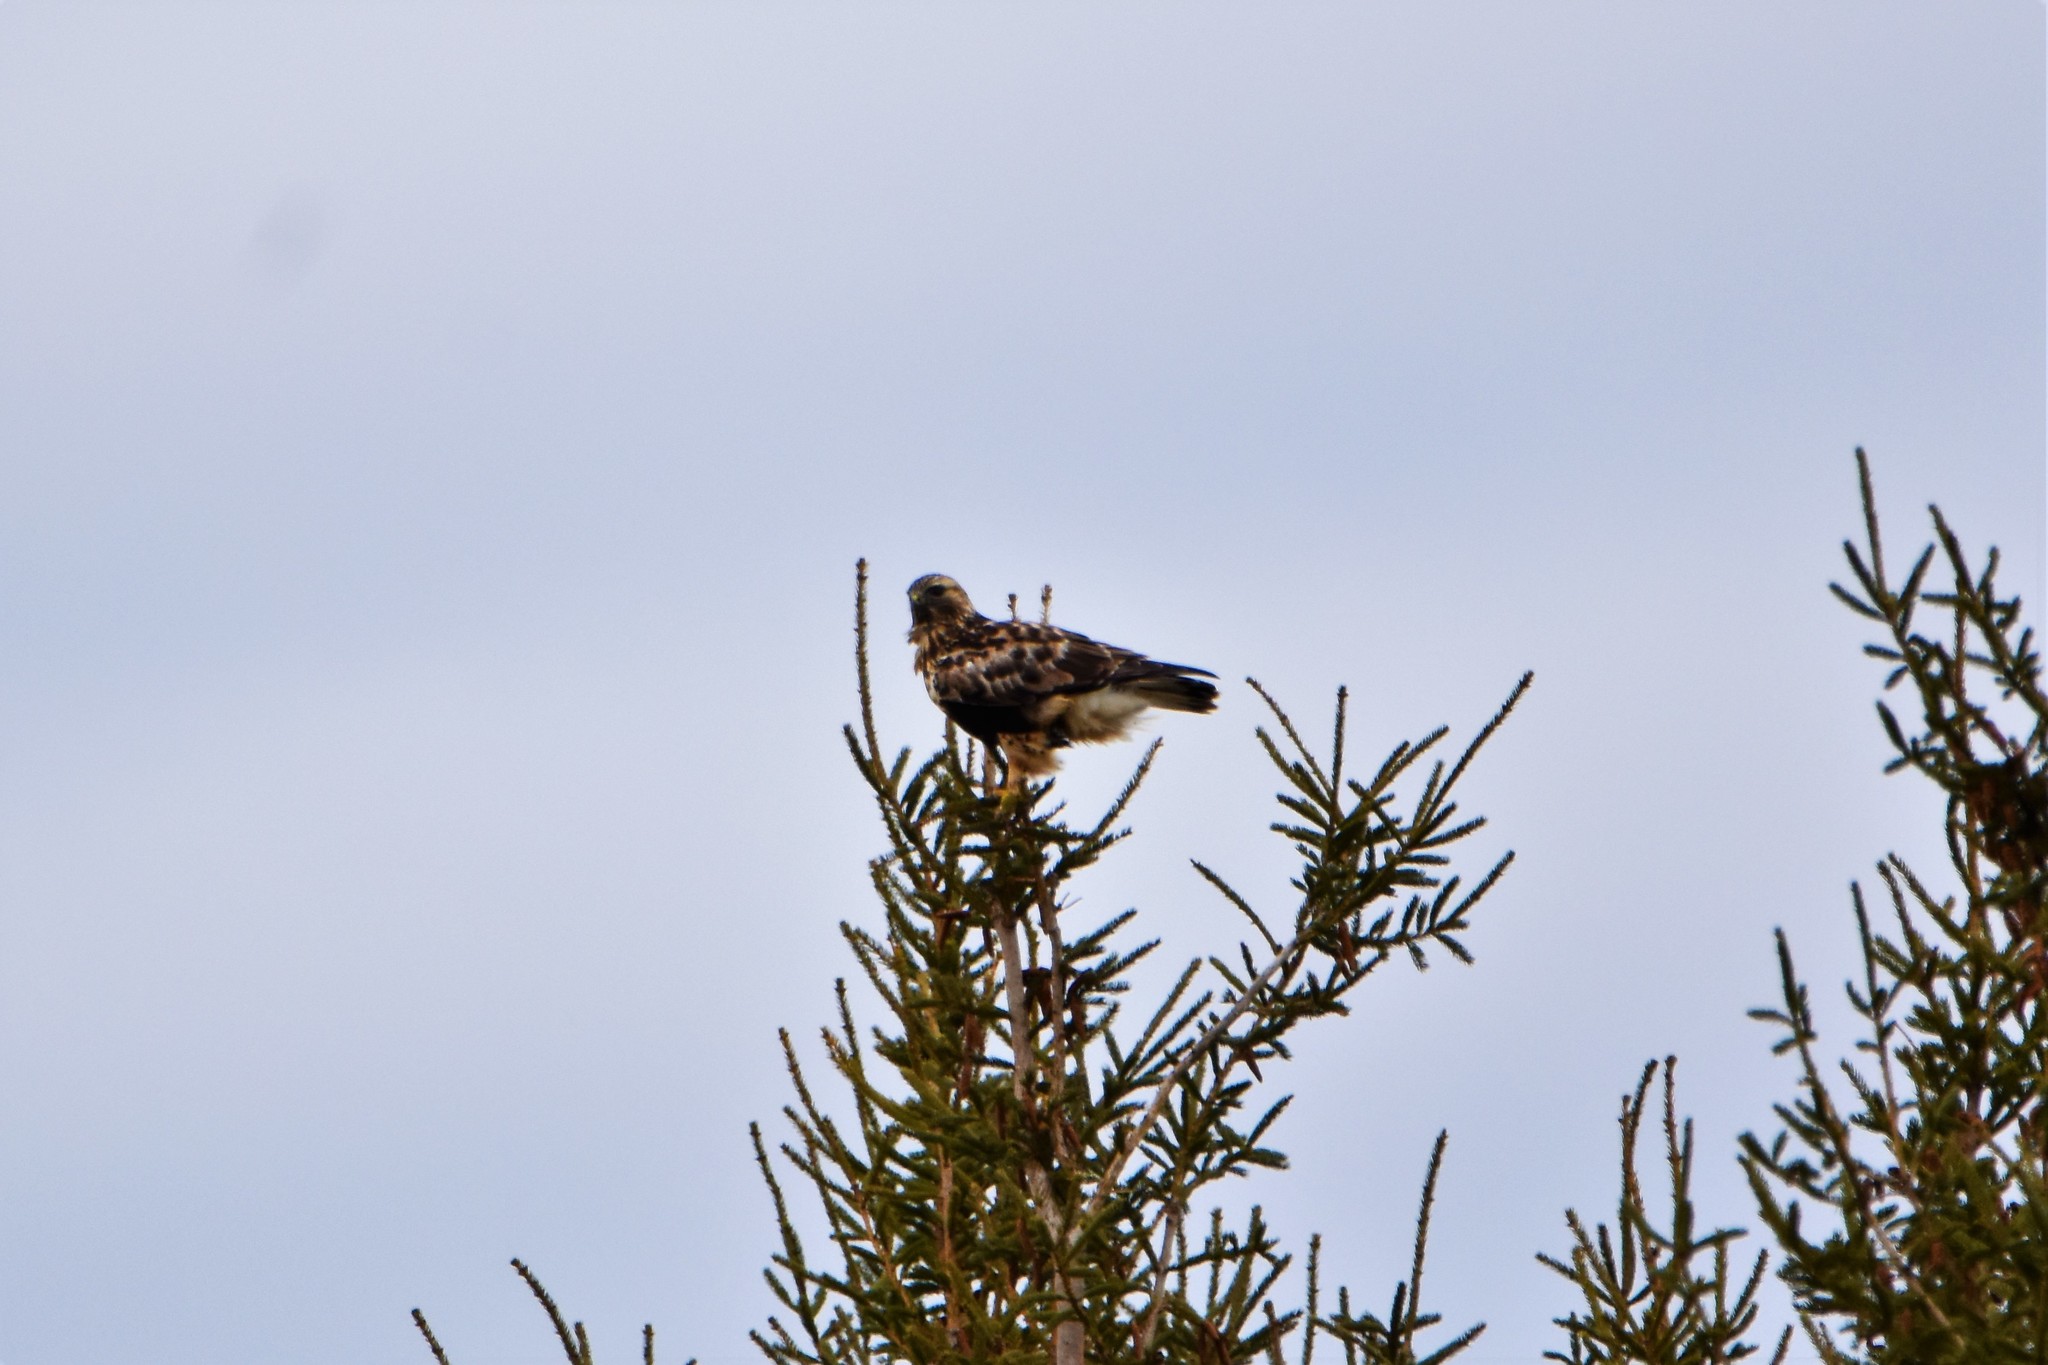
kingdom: Animalia
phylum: Chordata
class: Aves
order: Accipitriformes
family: Accipitridae
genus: Buteo
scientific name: Buteo lagopus
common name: Rough-legged buzzard
